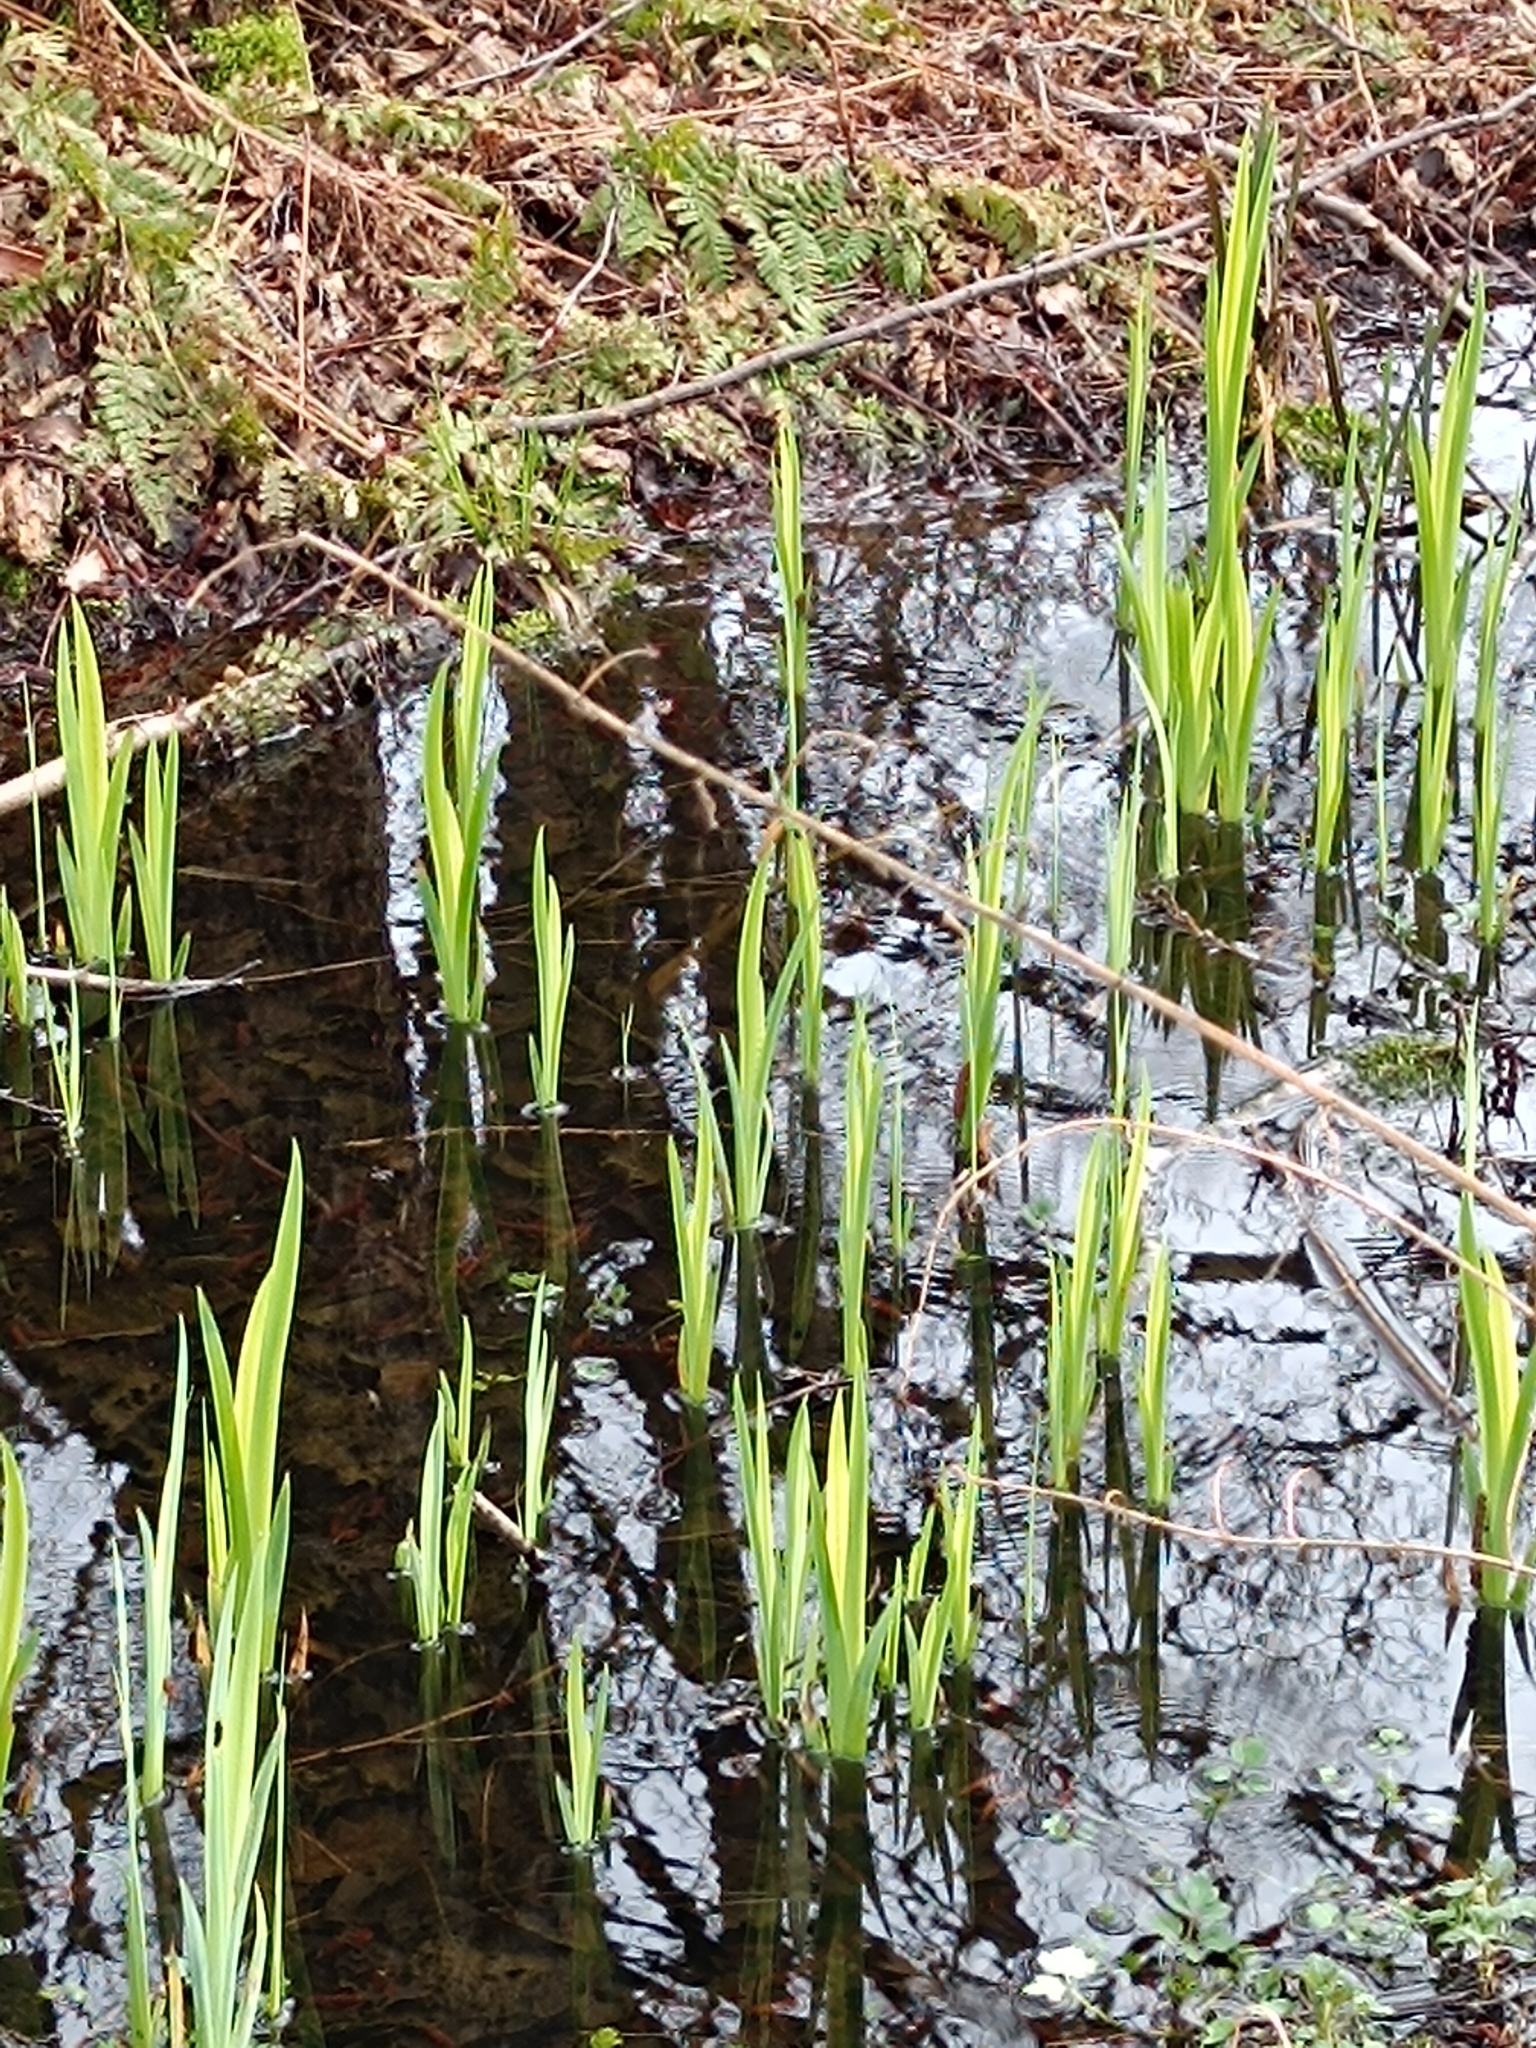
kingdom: Plantae
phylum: Tracheophyta
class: Liliopsida
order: Asparagales
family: Iridaceae
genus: Iris
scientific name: Iris pseudacorus
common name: Yellow flag
